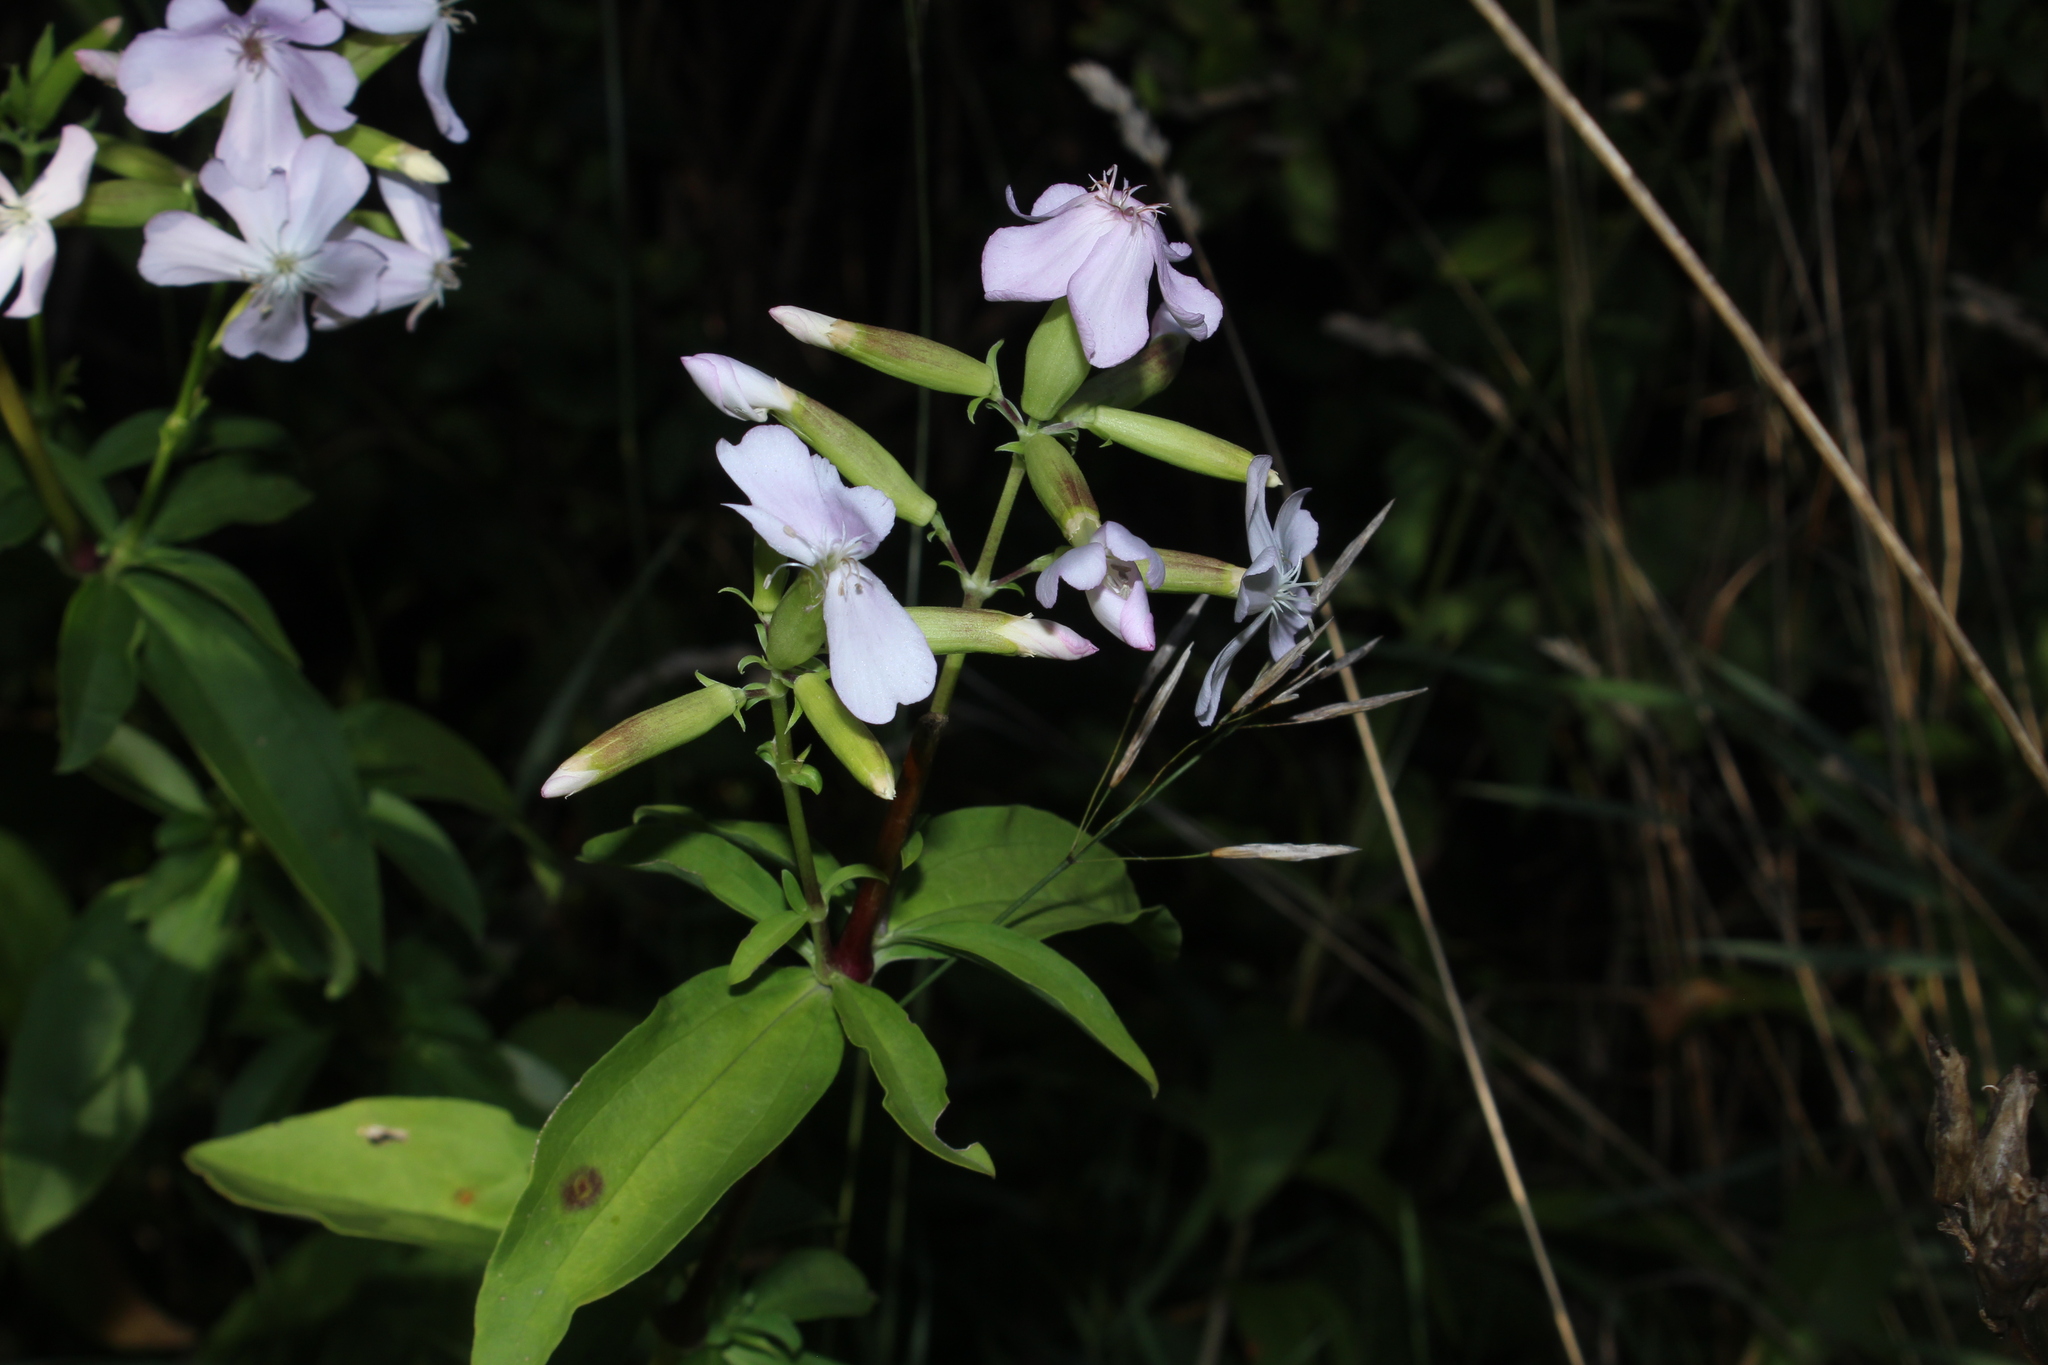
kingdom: Plantae
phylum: Tracheophyta
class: Magnoliopsida
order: Caryophyllales
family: Caryophyllaceae
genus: Saponaria
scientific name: Saponaria officinalis
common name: Soapwort
